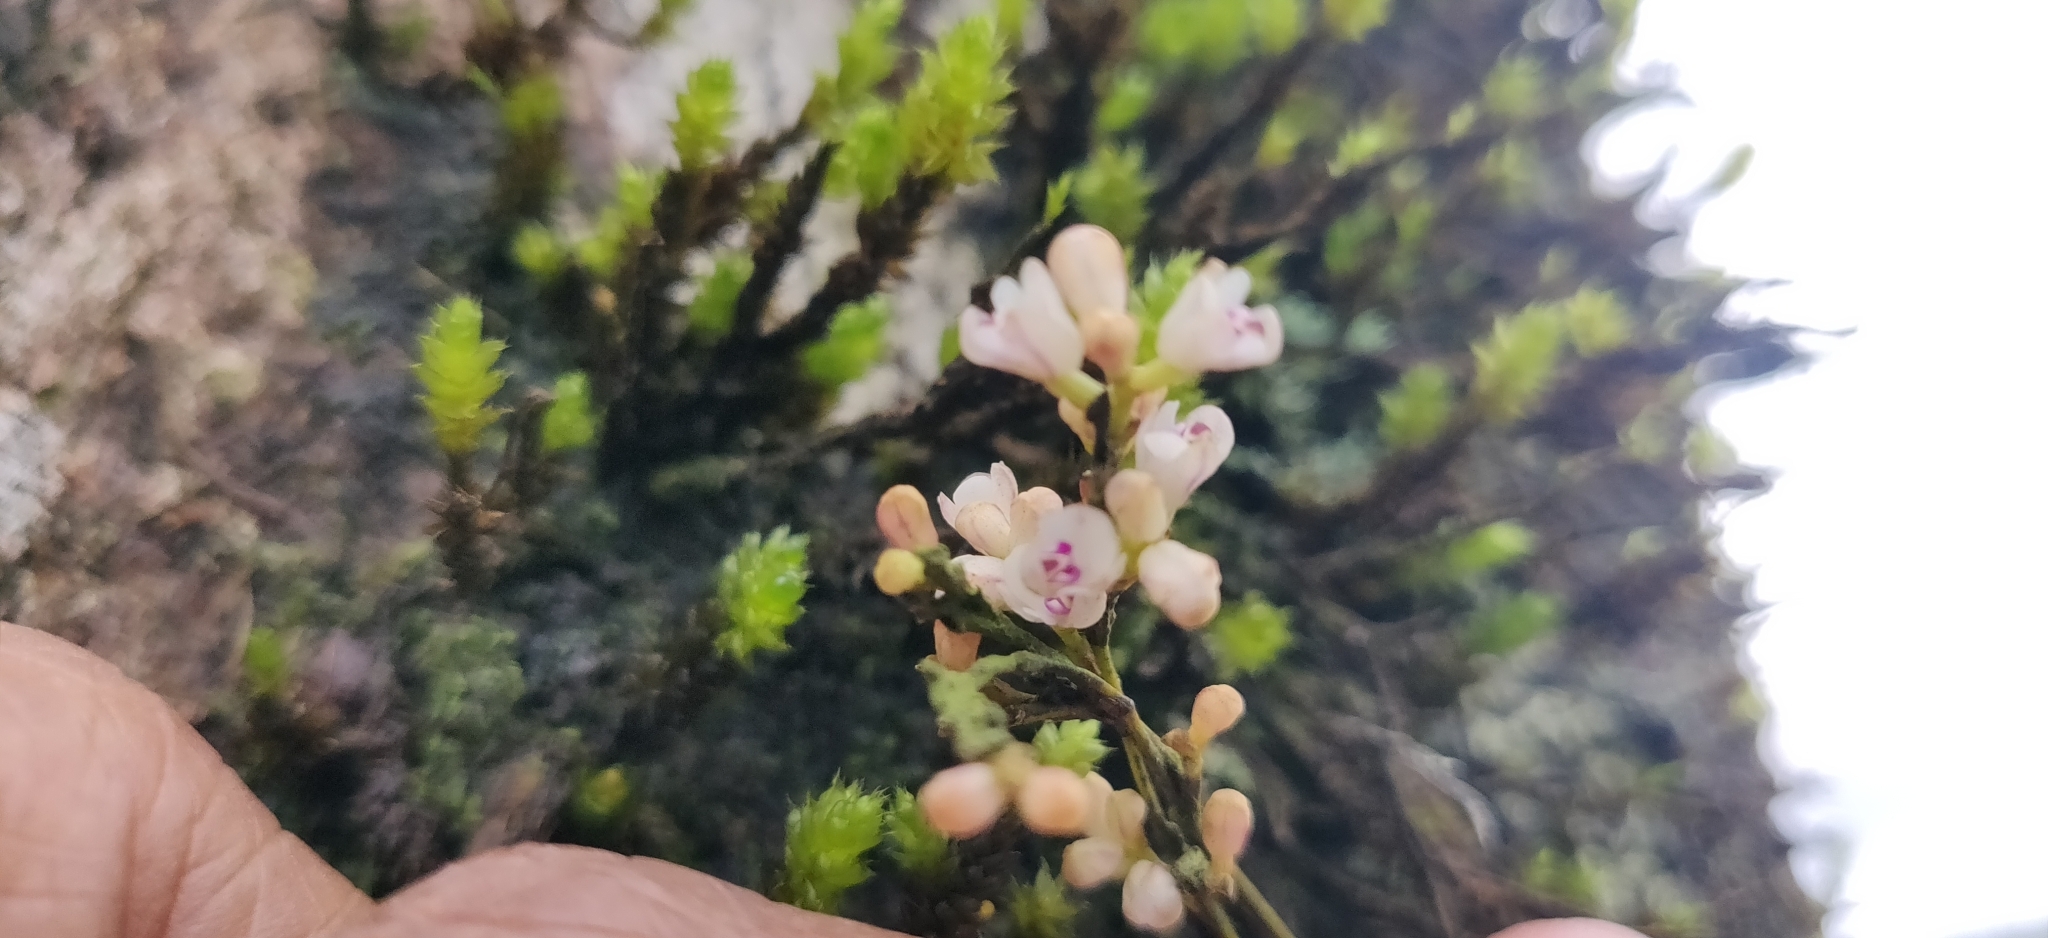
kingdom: Plantae
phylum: Tracheophyta
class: Liliopsida
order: Asparagales
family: Orchidaceae
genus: Sirhookera
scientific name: Sirhookera lanceolata
